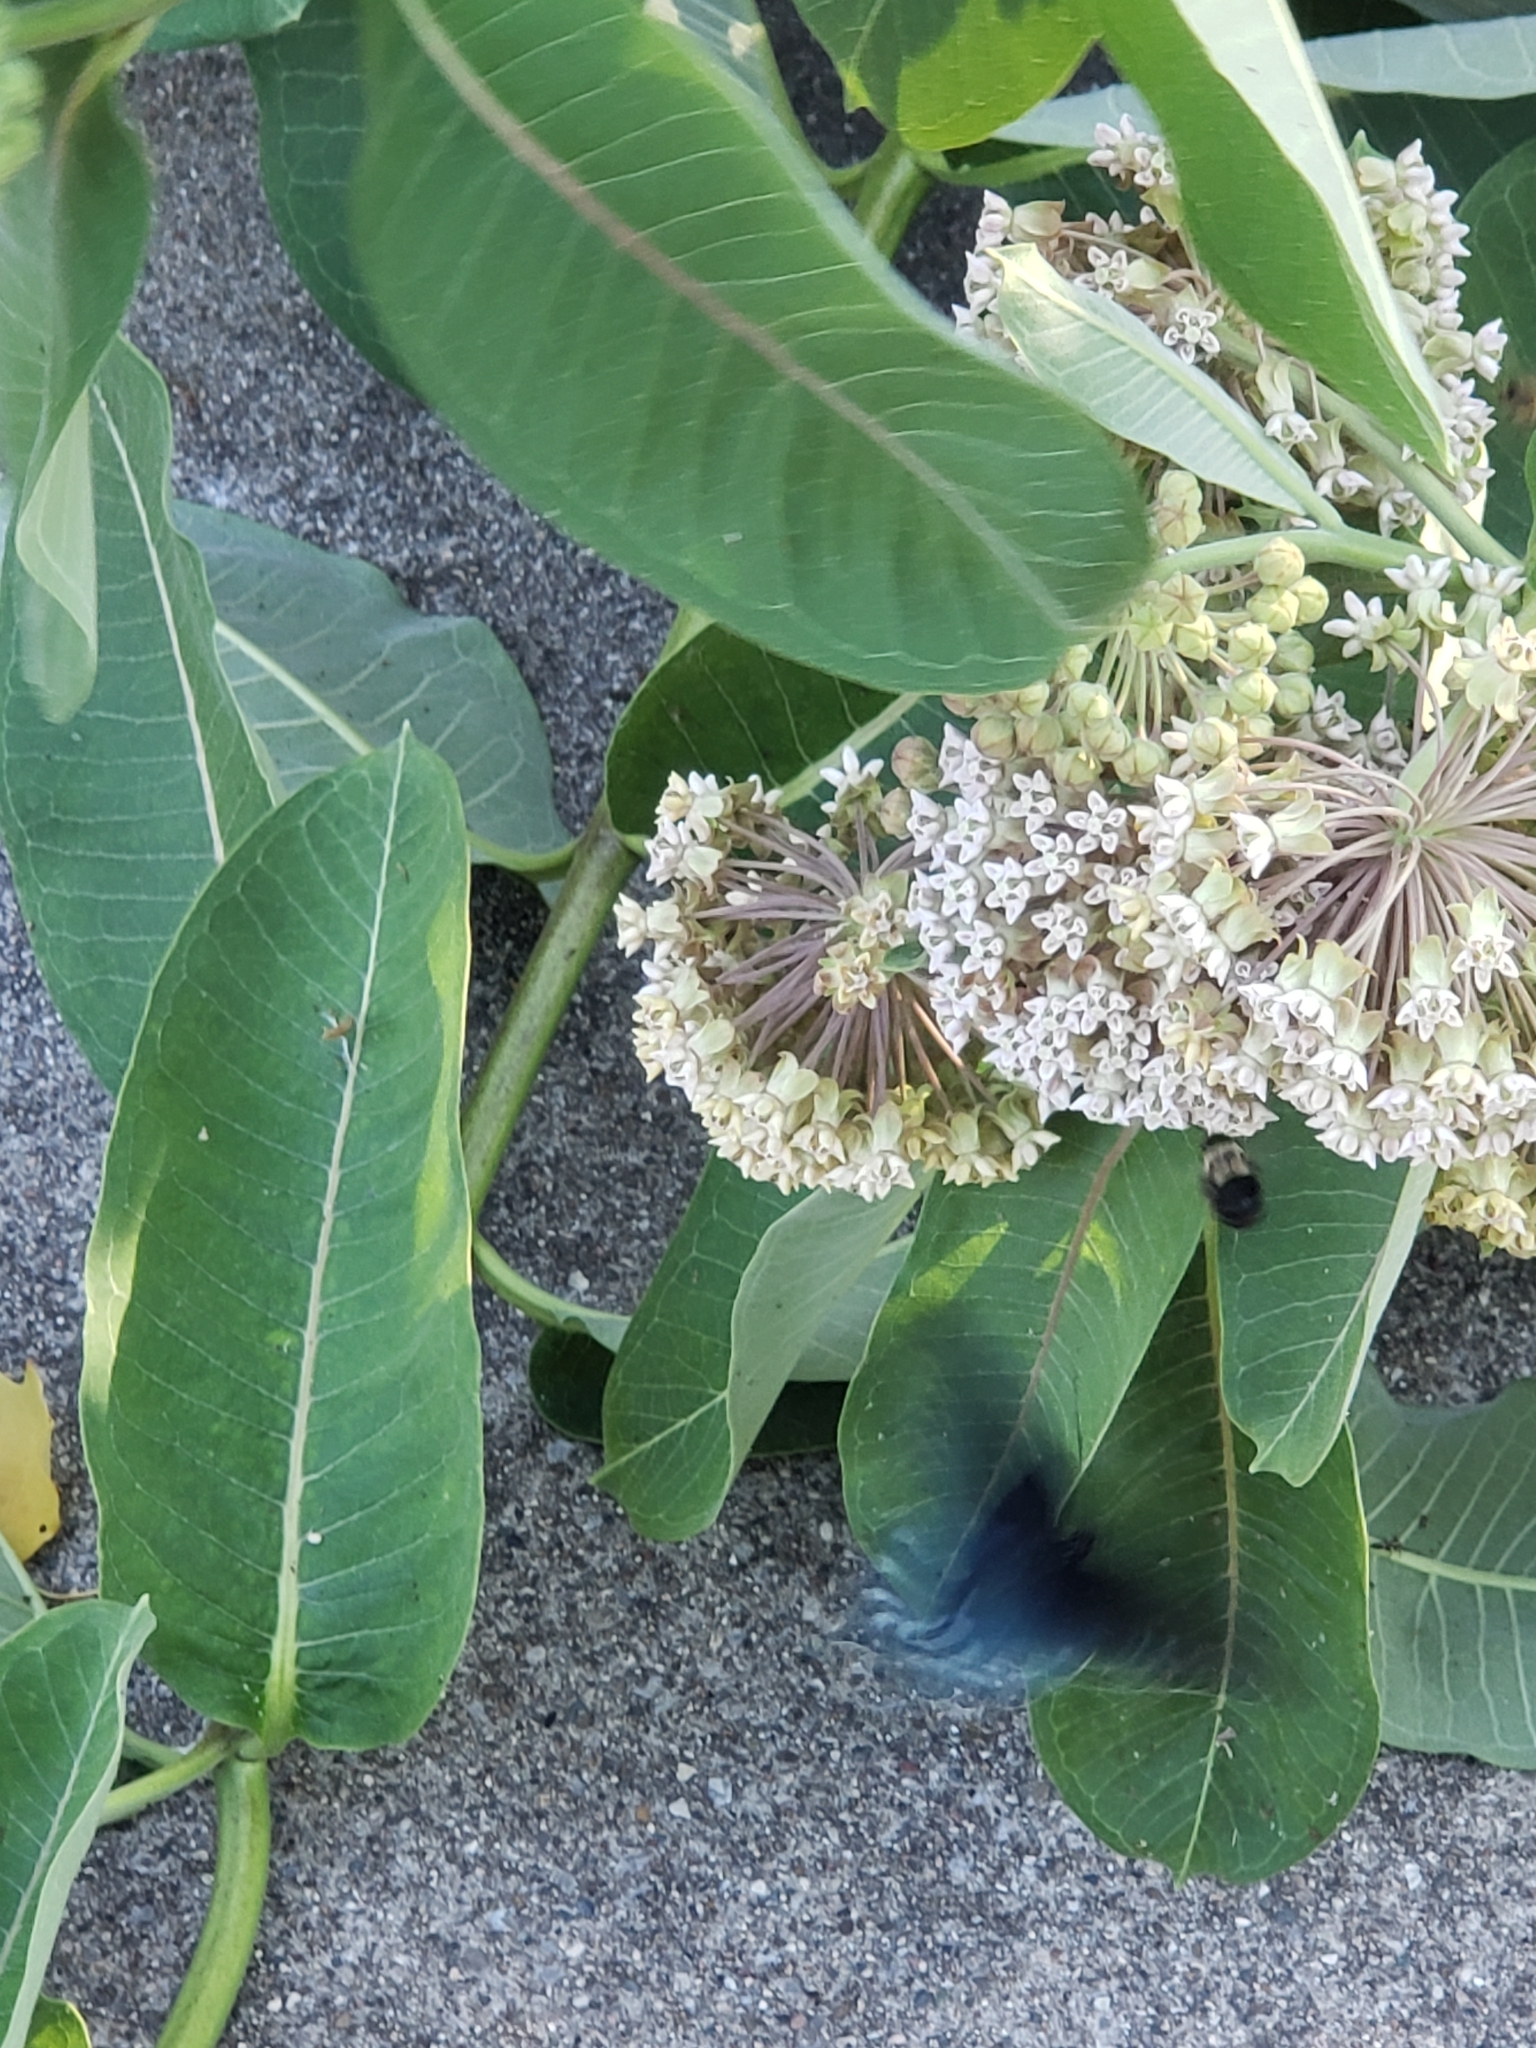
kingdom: Animalia
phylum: Arthropoda
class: Insecta
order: Lepidoptera
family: Papilionidae
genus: Battus
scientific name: Battus philenor
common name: Pipevine swallowtail
